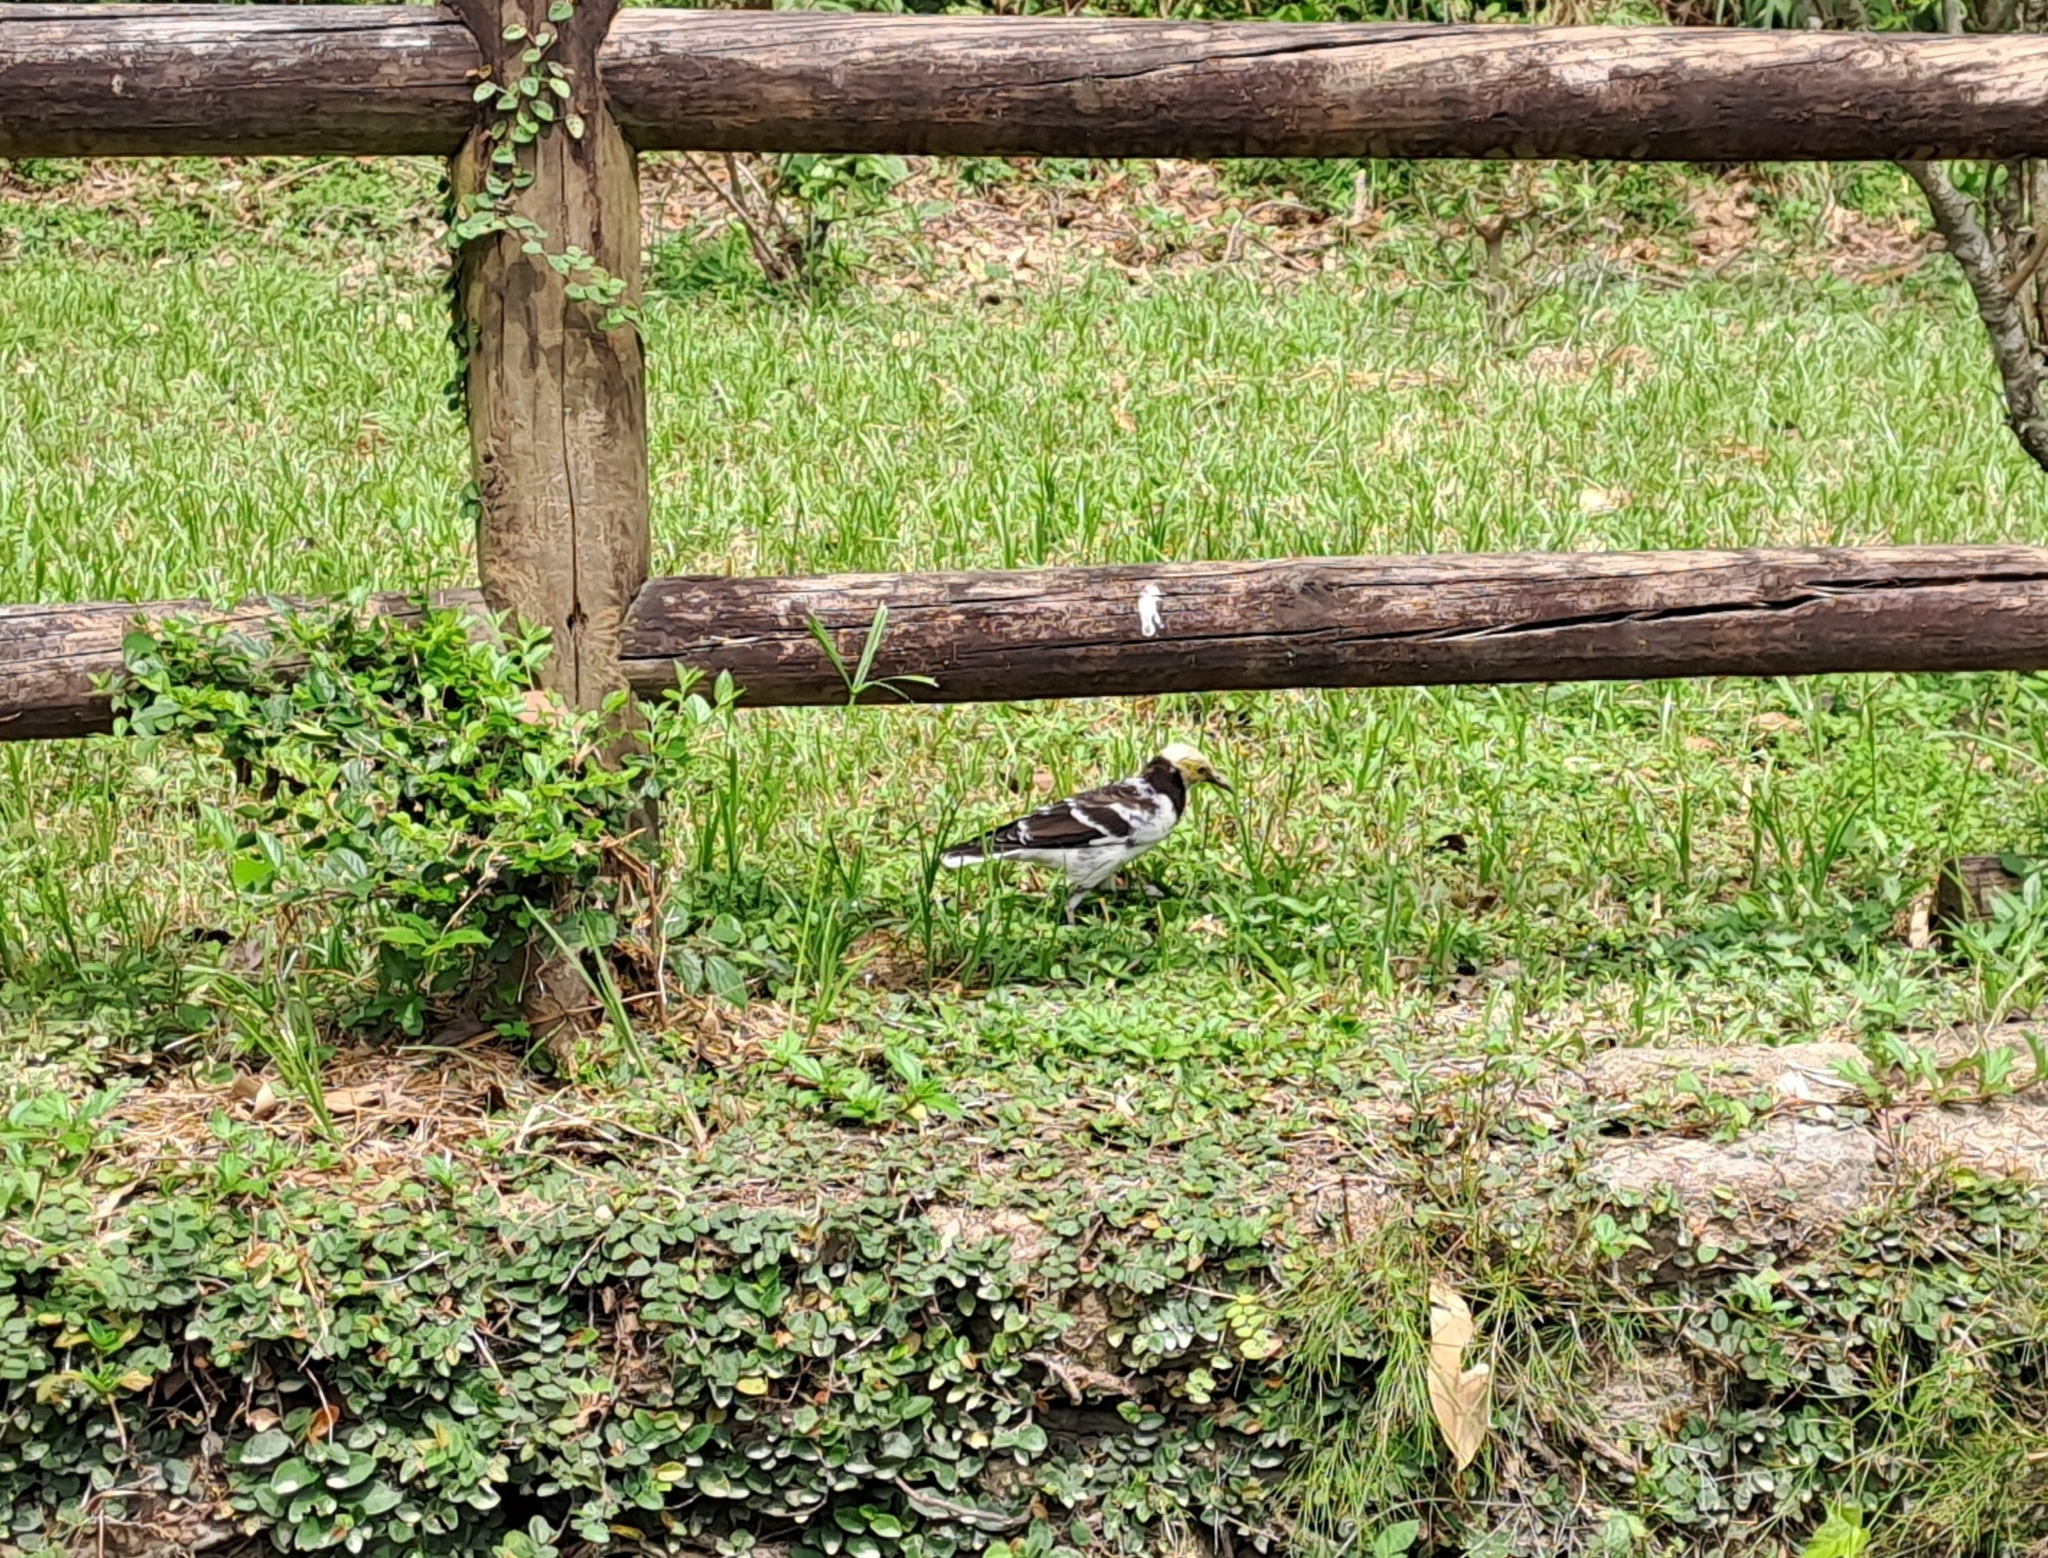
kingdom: Animalia
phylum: Chordata
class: Aves
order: Passeriformes
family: Sturnidae
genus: Gracupica
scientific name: Gracupica nigricollis
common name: Black-collared starling
